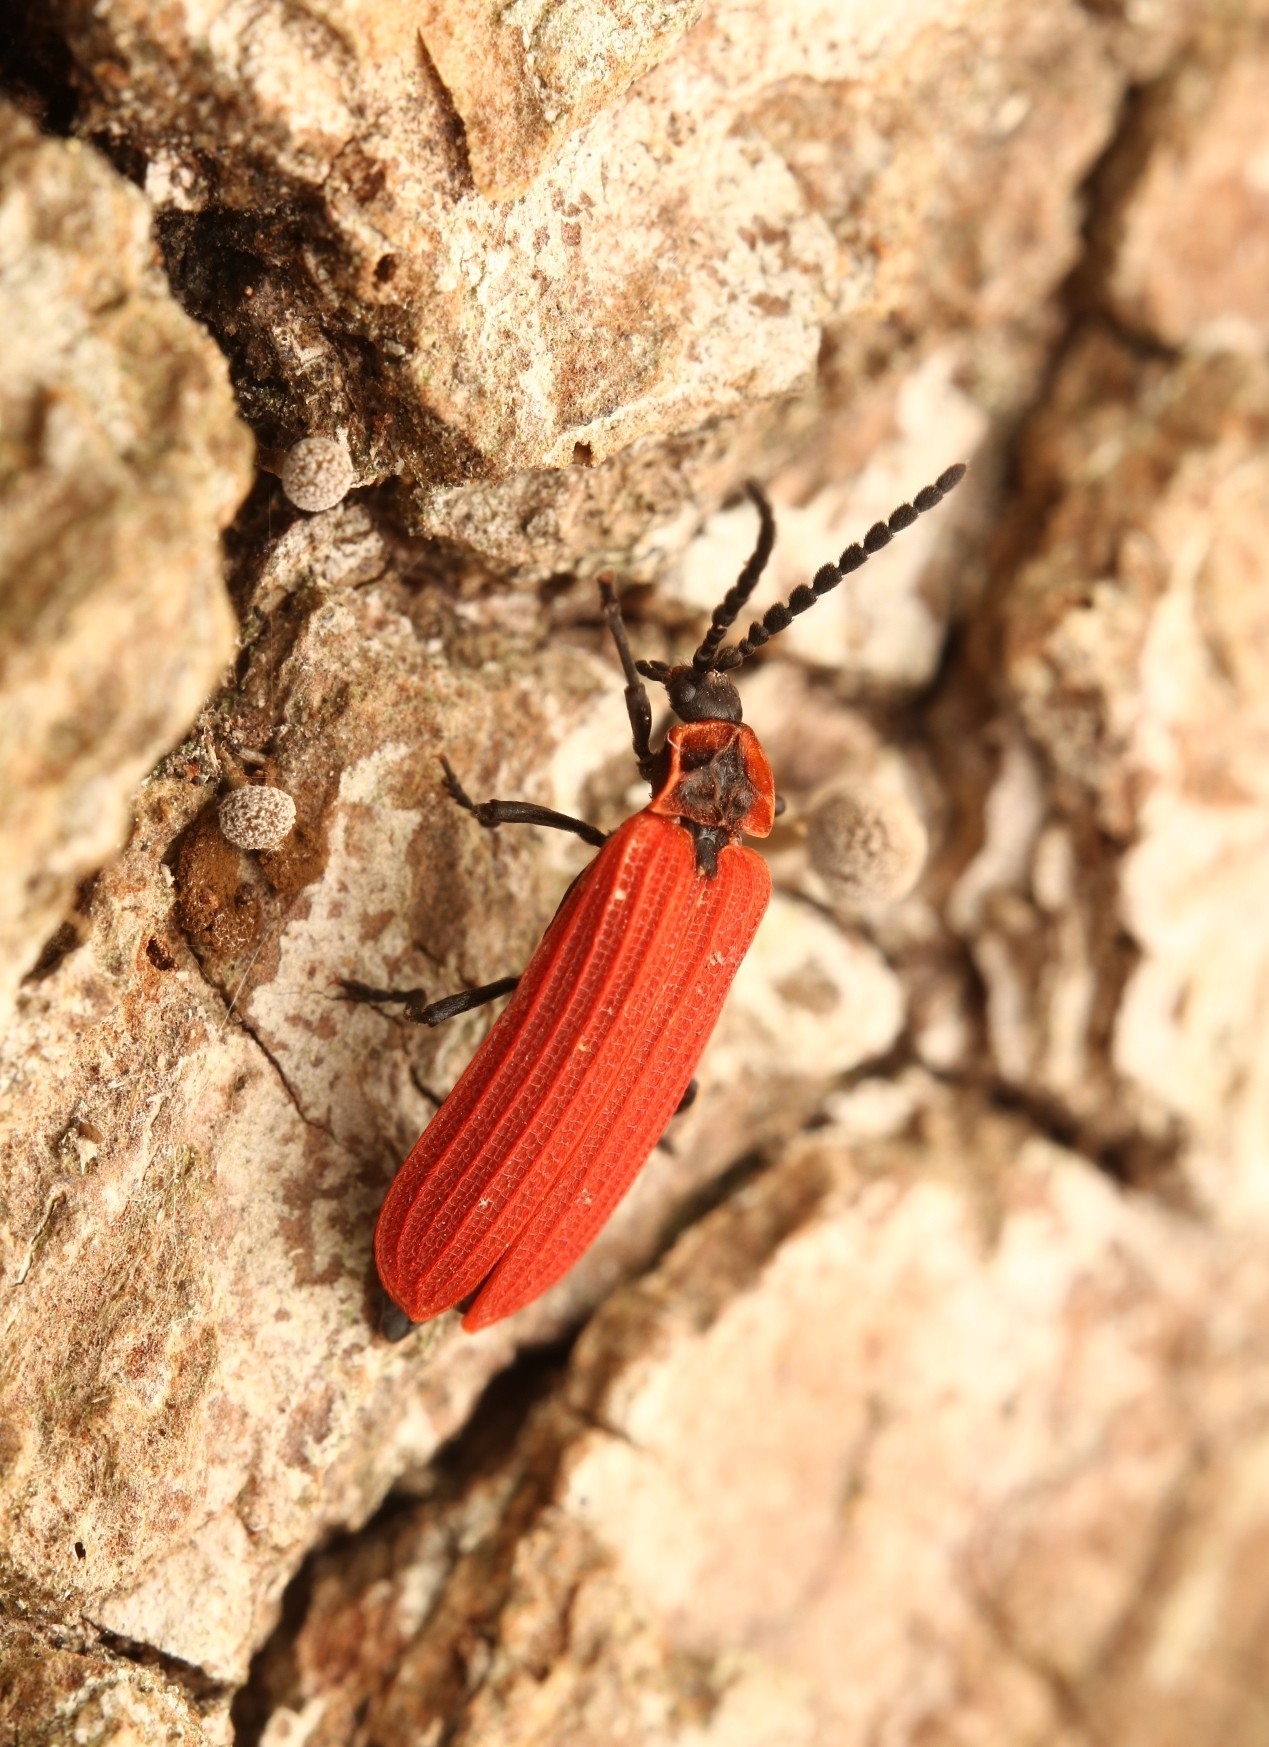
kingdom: Animalia
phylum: Arthropoda
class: Insecta
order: Coleoptera
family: Lycidae
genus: Dictyoptera
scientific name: Dictyoptera aurora
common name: Golden net-winged beetle
